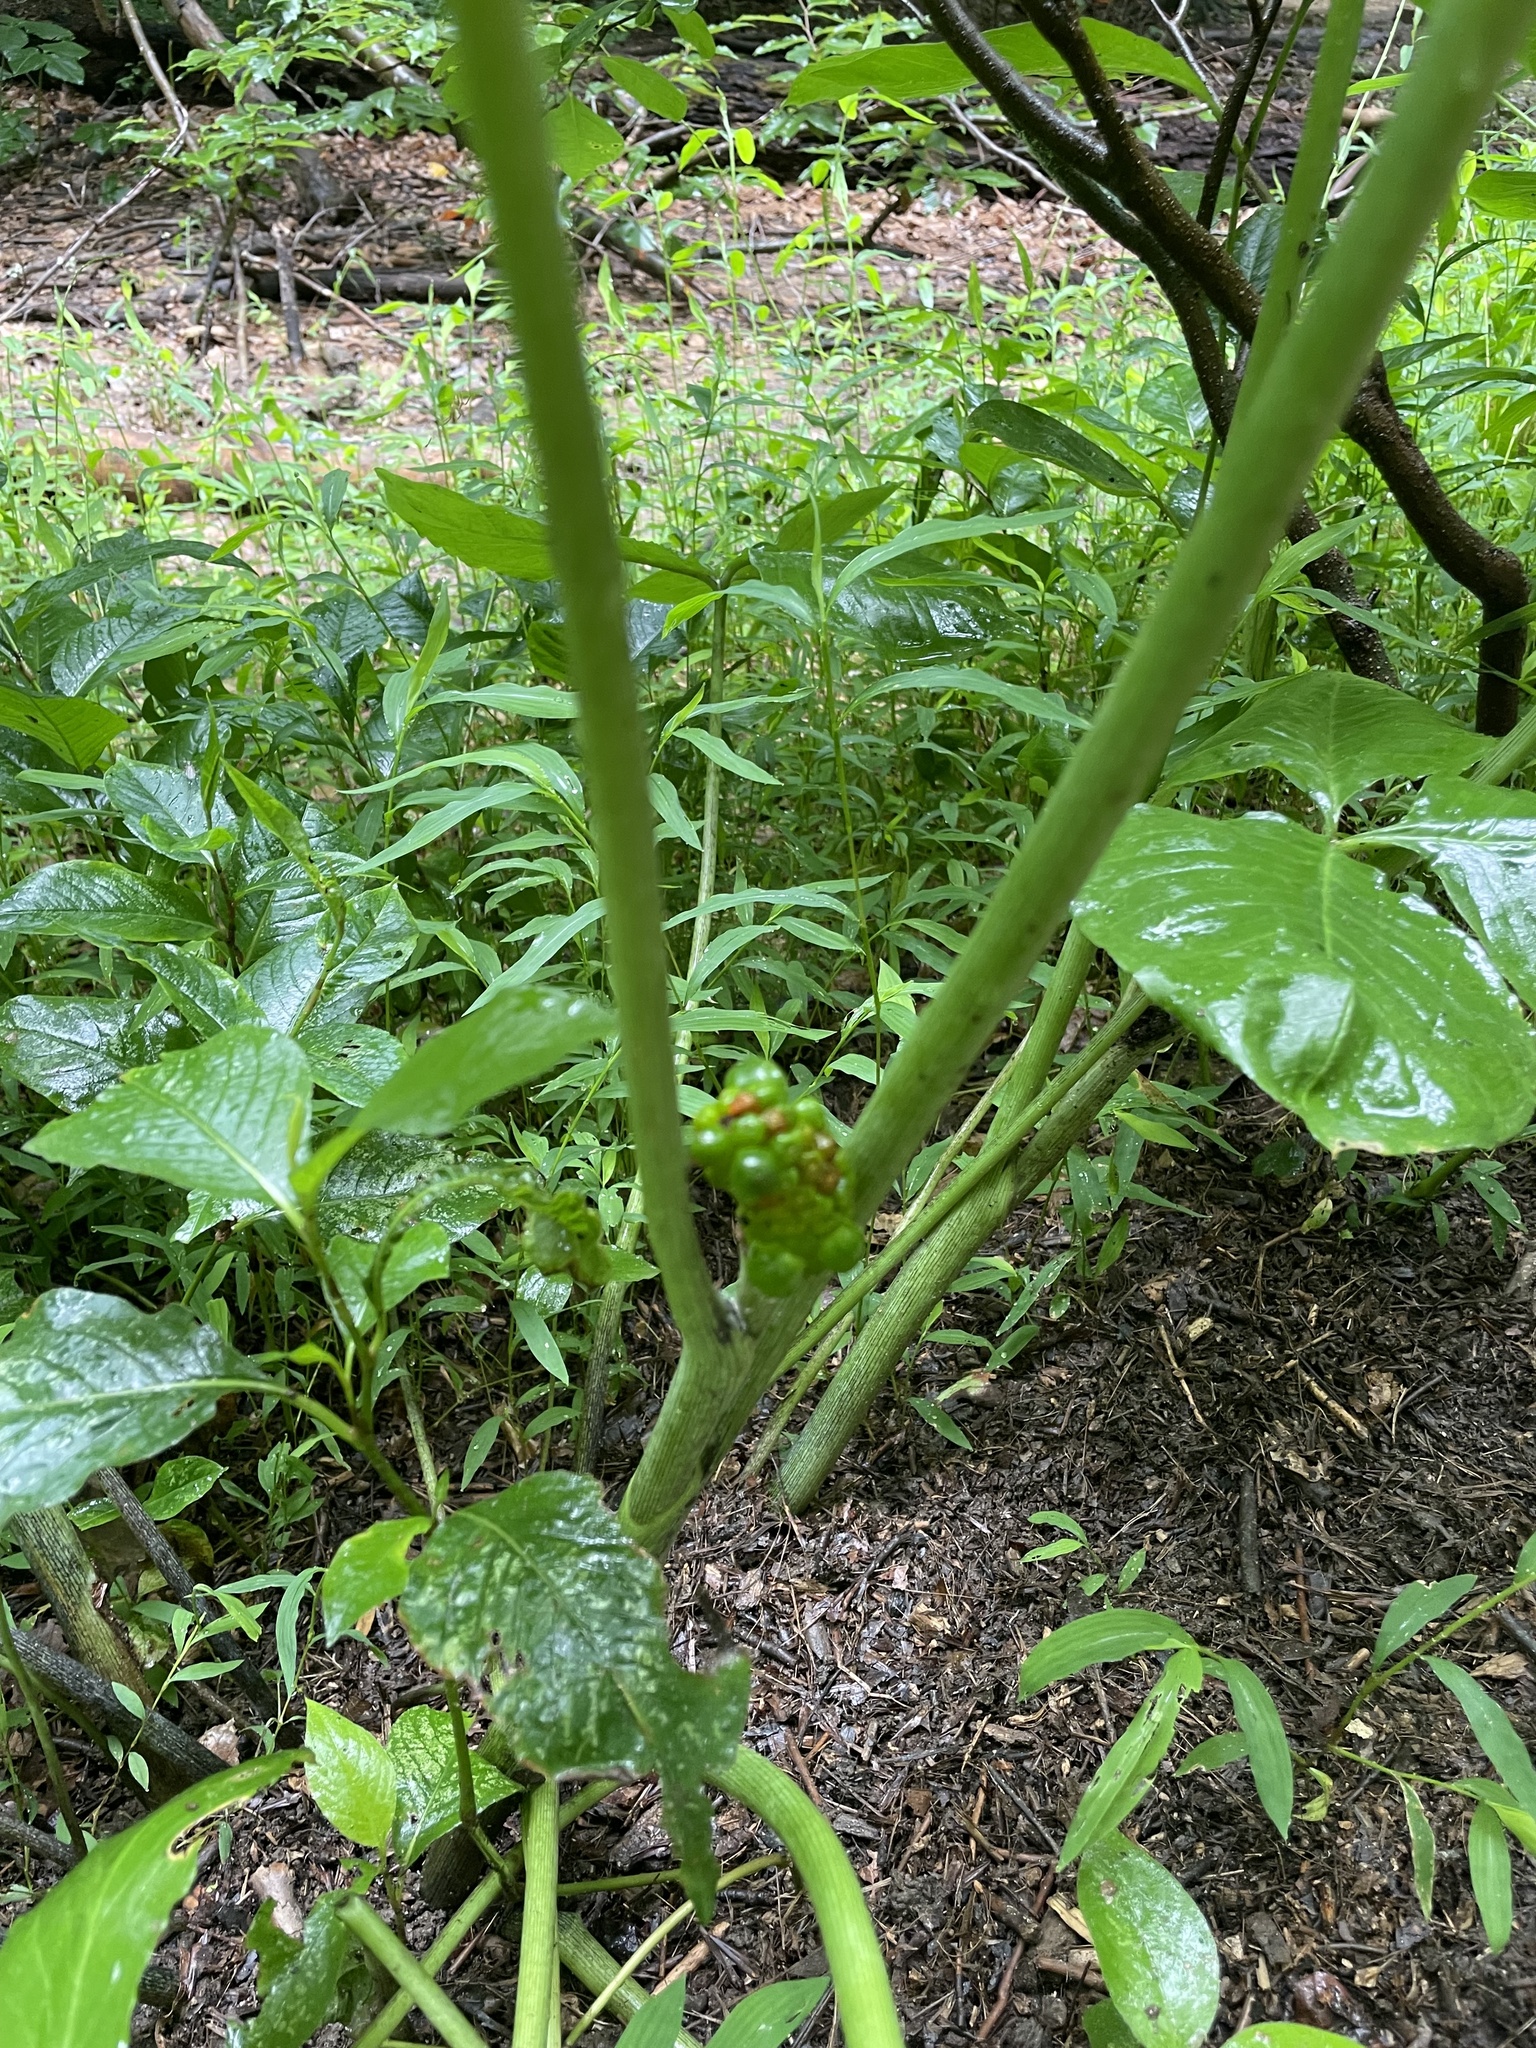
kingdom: Plantae
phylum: Tracheophyta
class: Liliopsida
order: Alismatales
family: Araceae
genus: Arisaema
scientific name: Arisaema triphyllum
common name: Jack-in-the-pulpit
